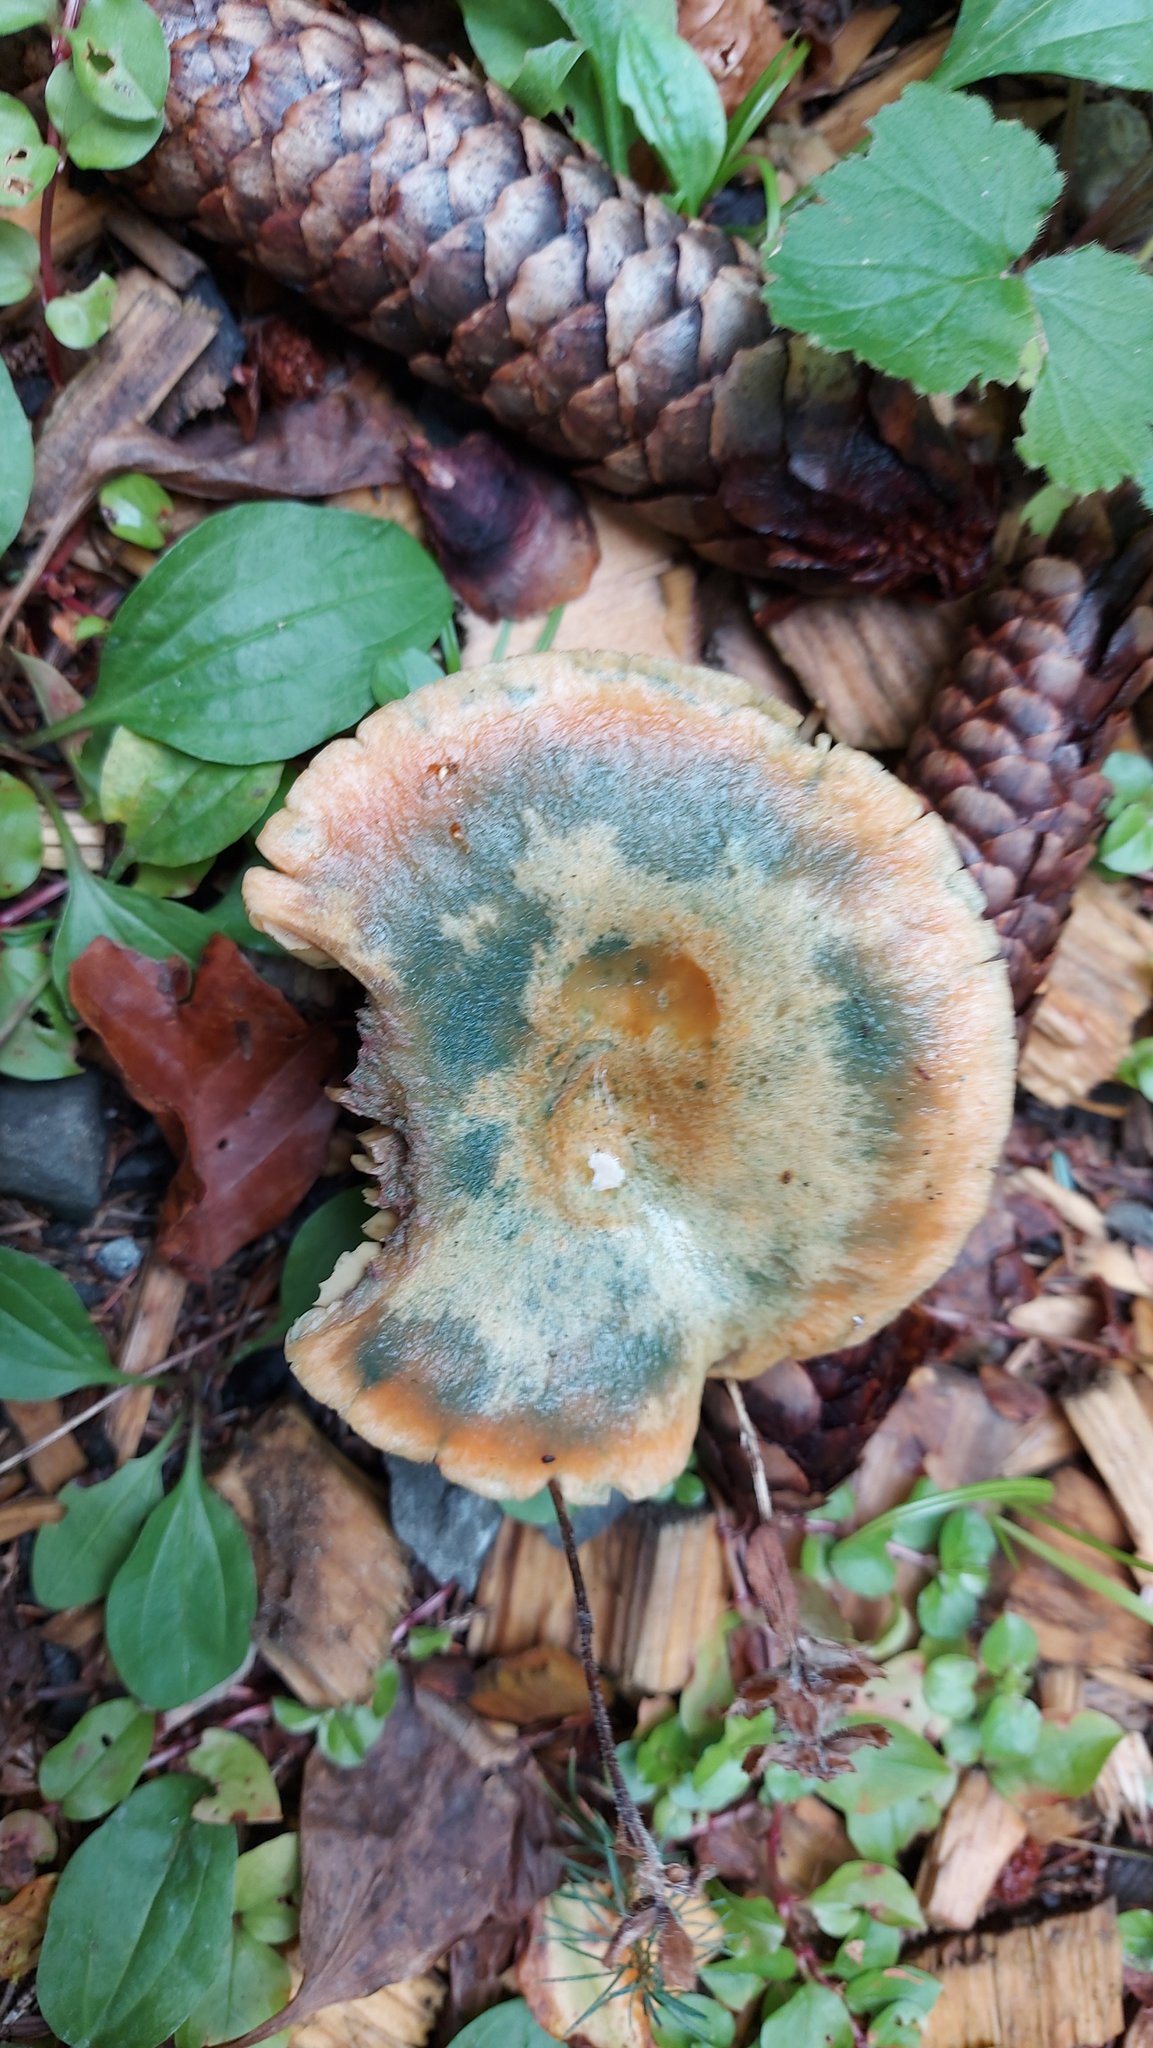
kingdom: Fungi
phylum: Basidiomycota
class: Agaricomycetes
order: Russulales
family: Russulaceae
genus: Lactarius
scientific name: Lactarius deterrimus
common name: False saffron milkcap
